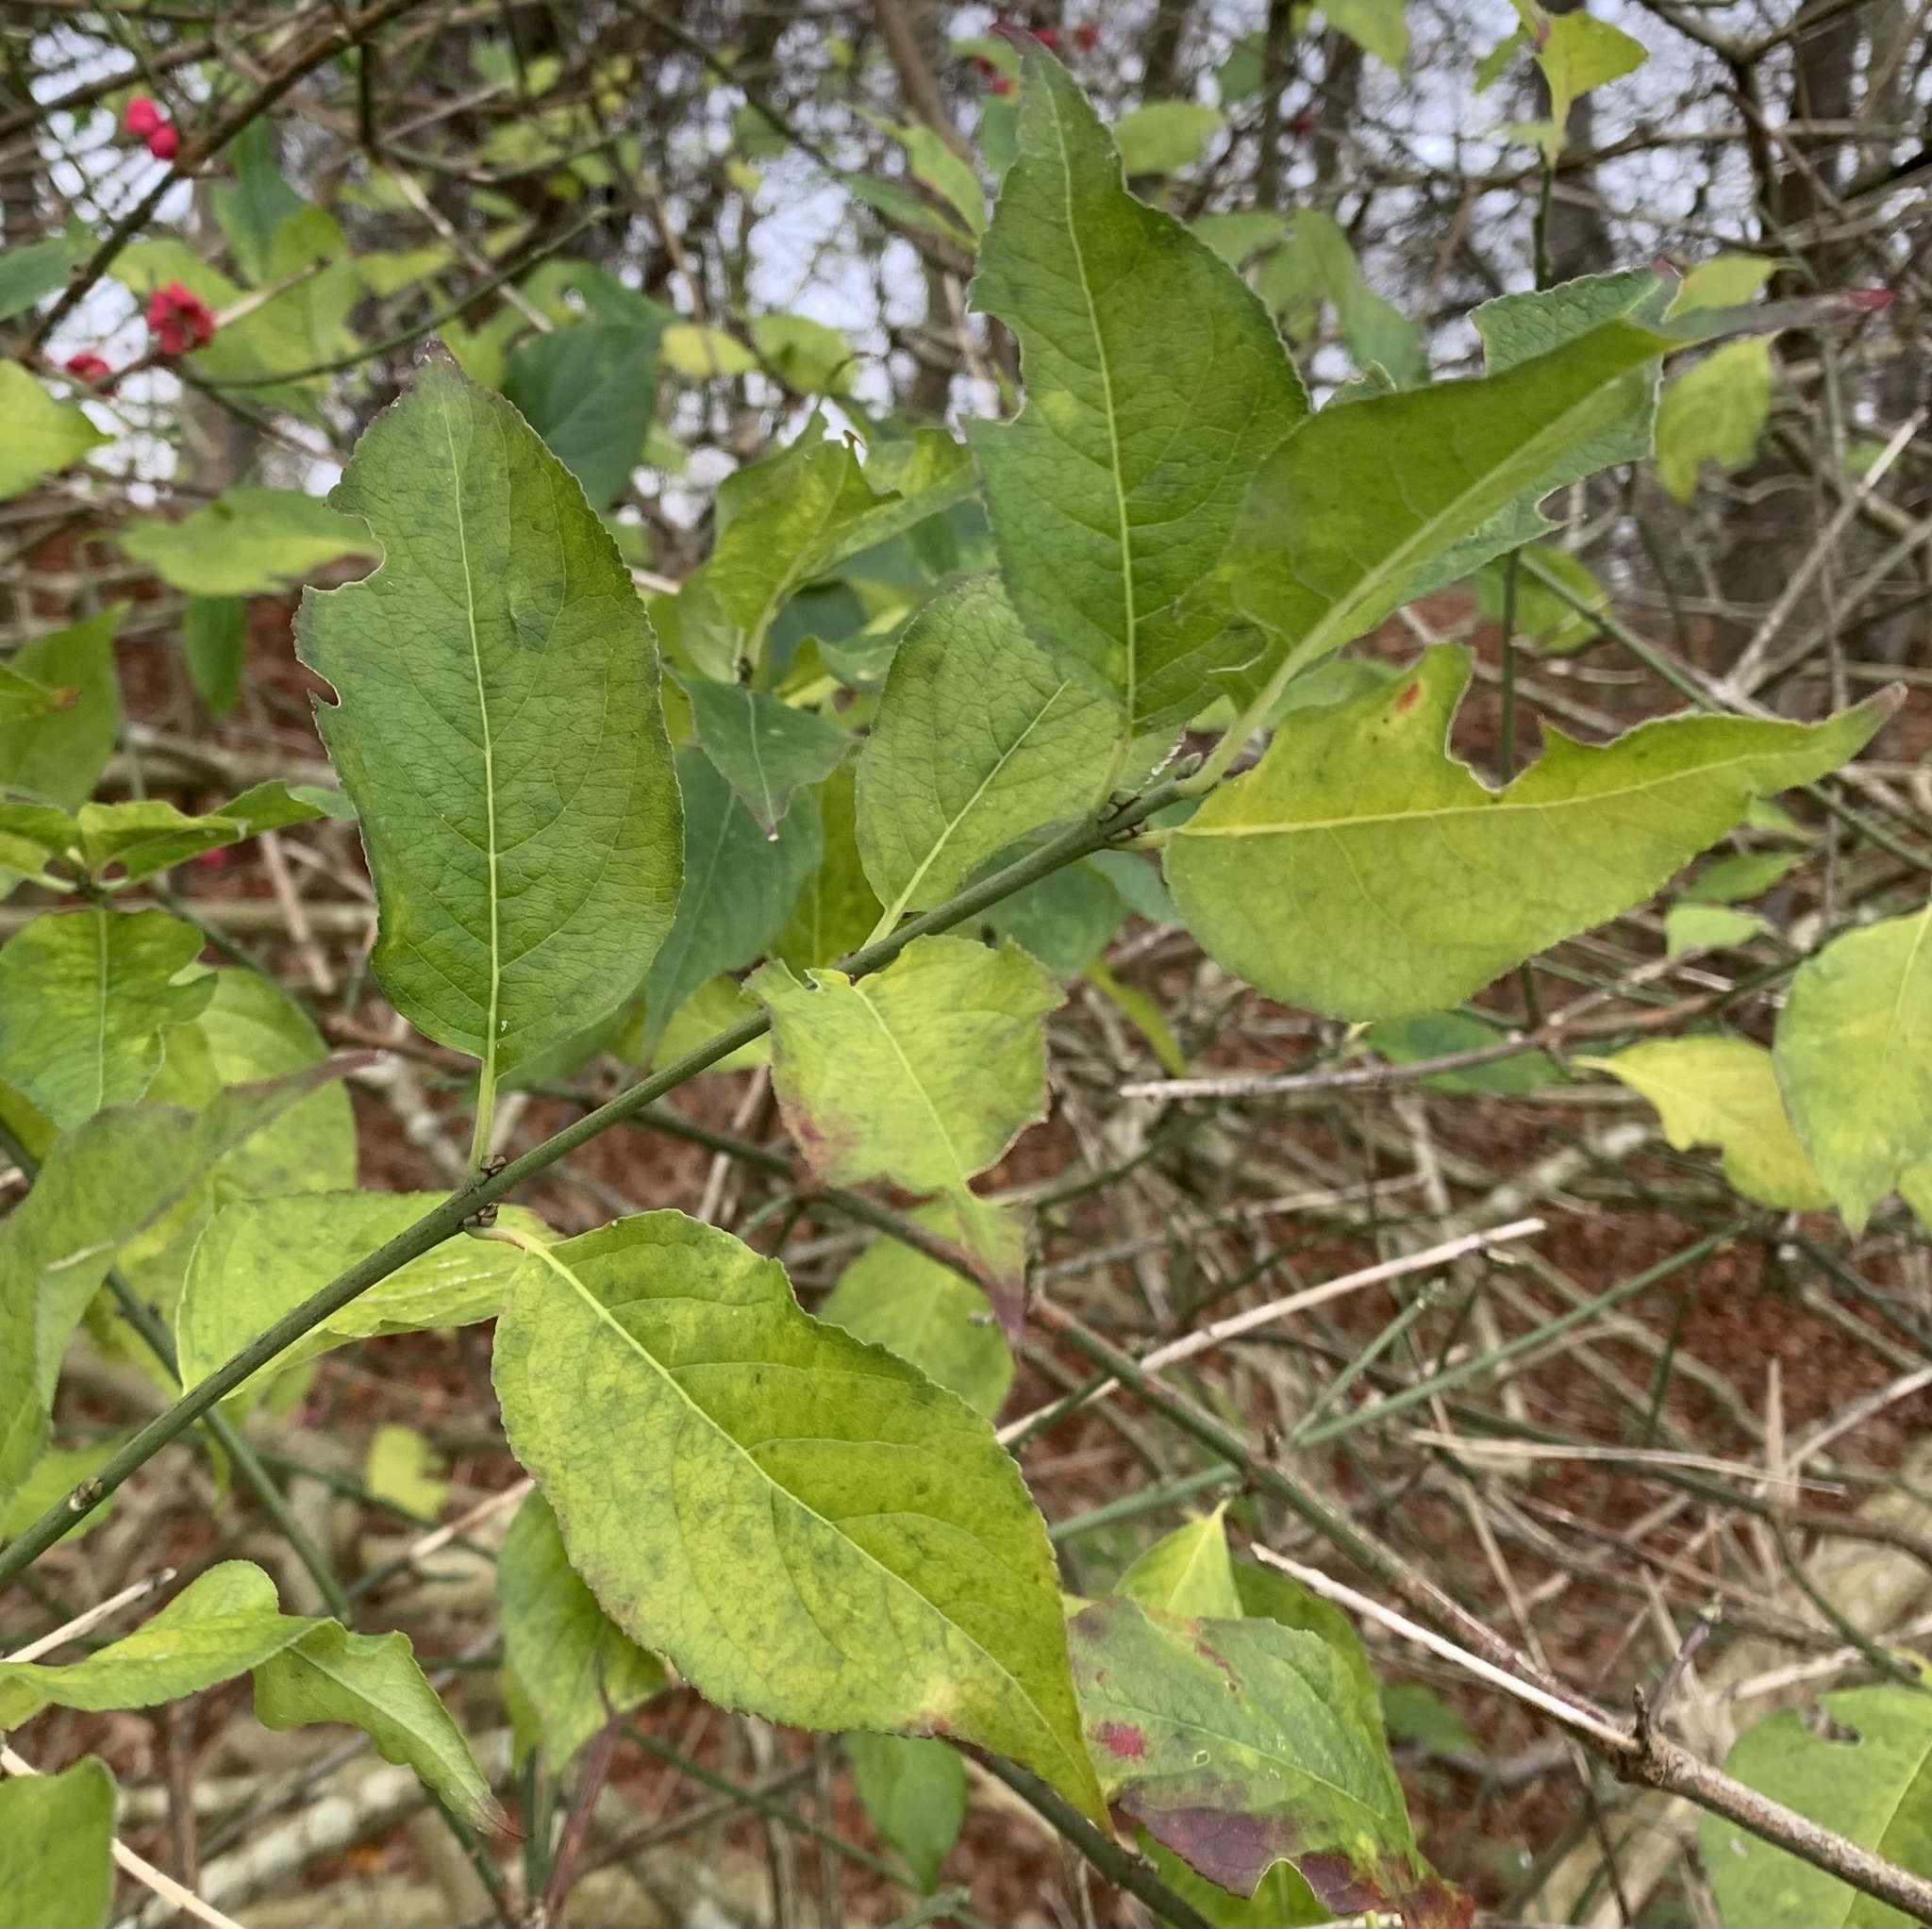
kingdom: Plantae
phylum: Tracheophyta
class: Magnoliopsida
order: Celastrales
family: Celastraceae
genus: Euonymus
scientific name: Euonymus europaeus
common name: Spindle
